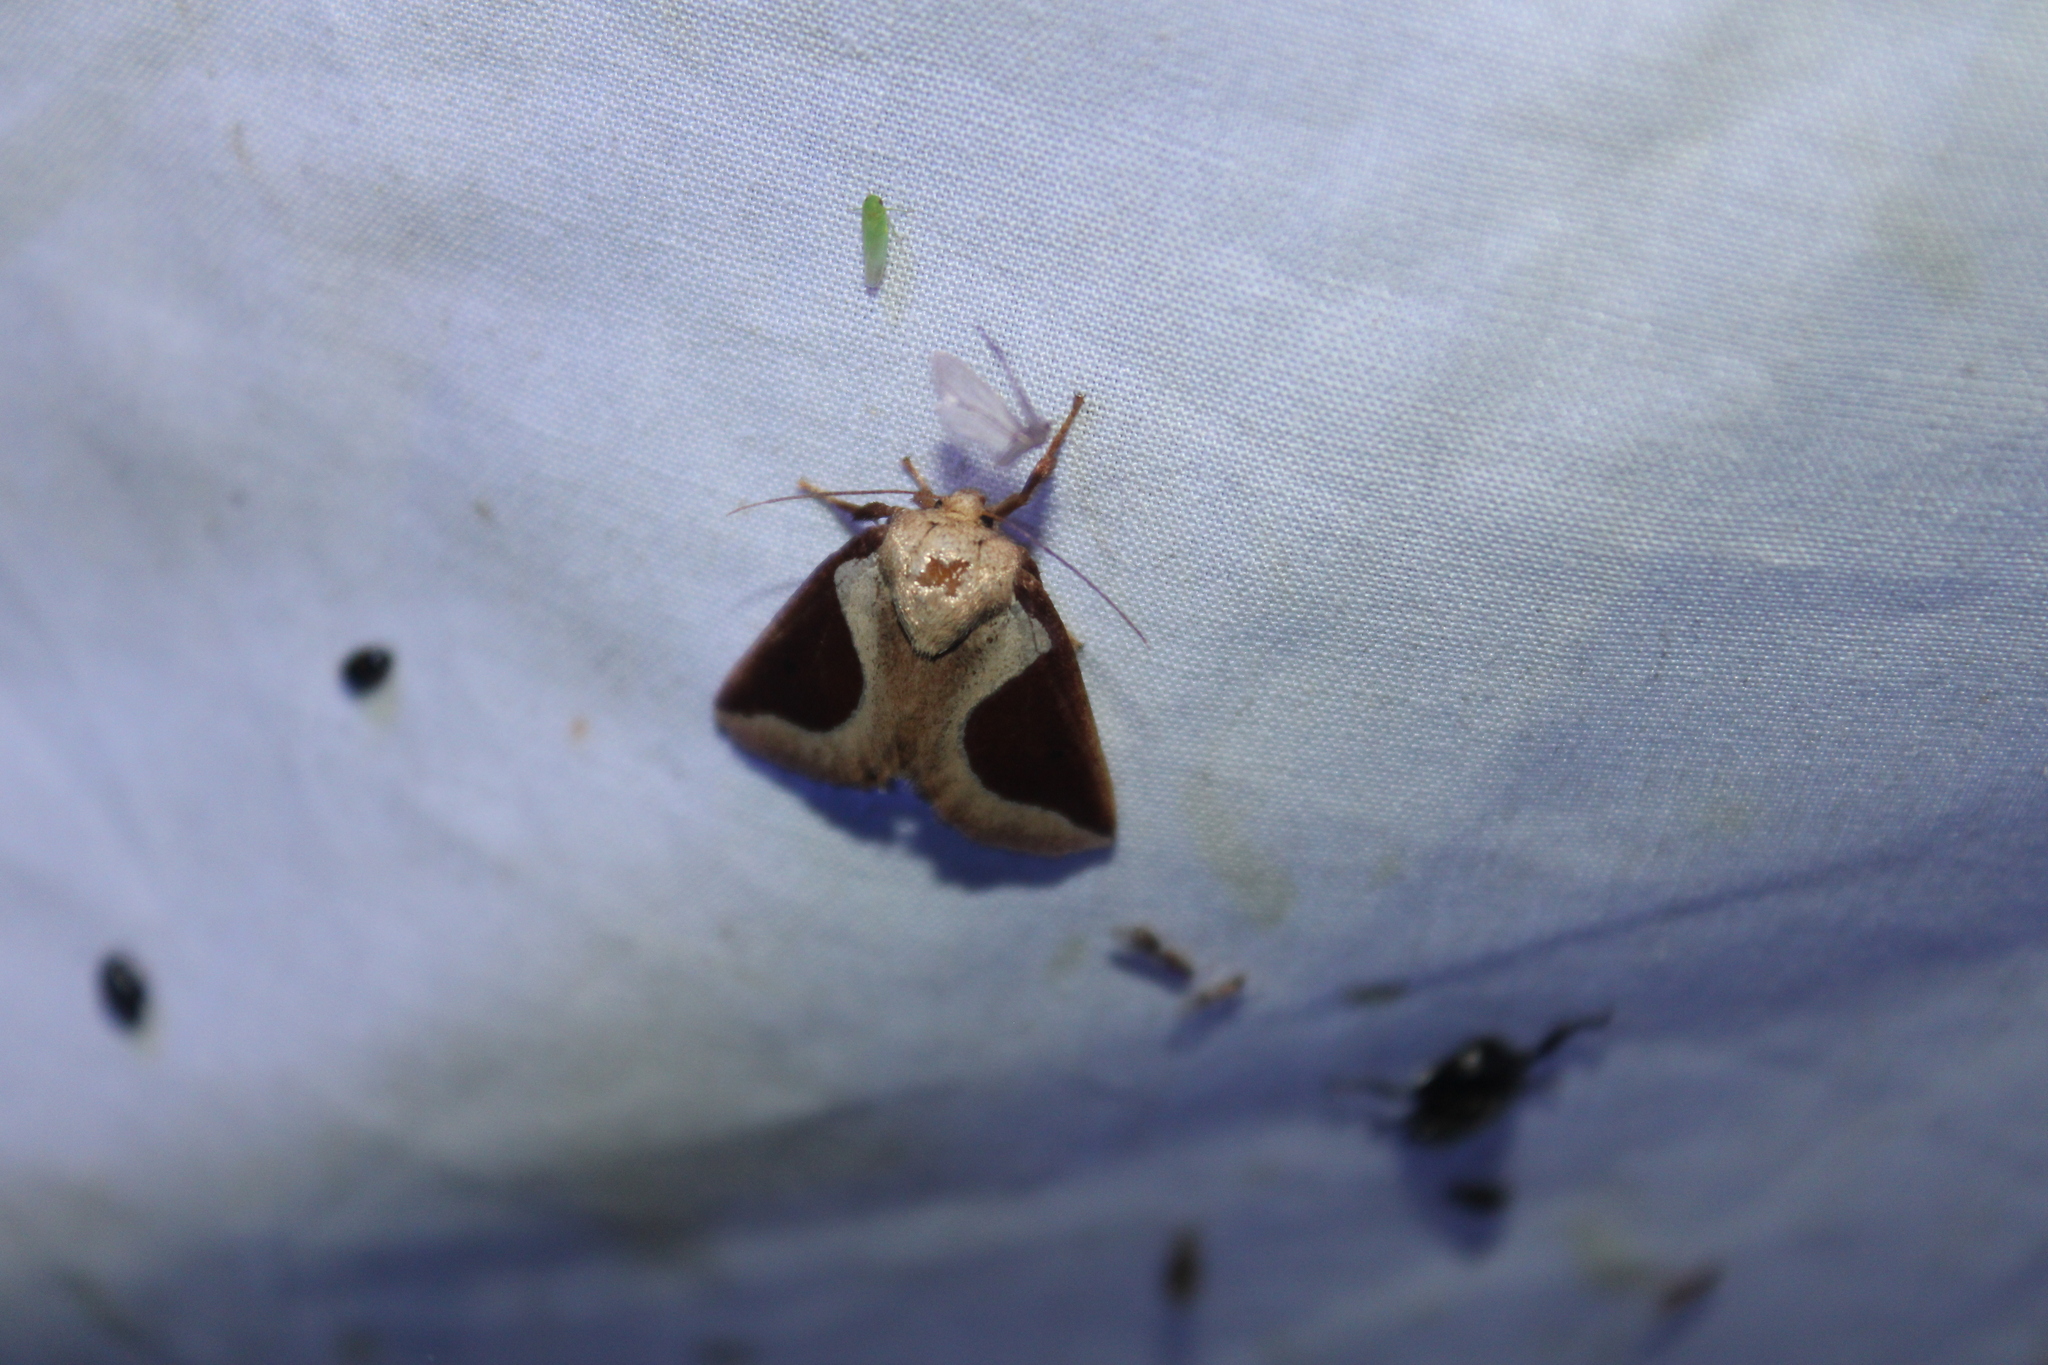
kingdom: Animalia
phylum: Arthropoda
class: Insecta
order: Lepidoptera
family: Limacodidae
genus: Prolimacodes
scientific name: Prolimacodes badia
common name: Skiff moth
